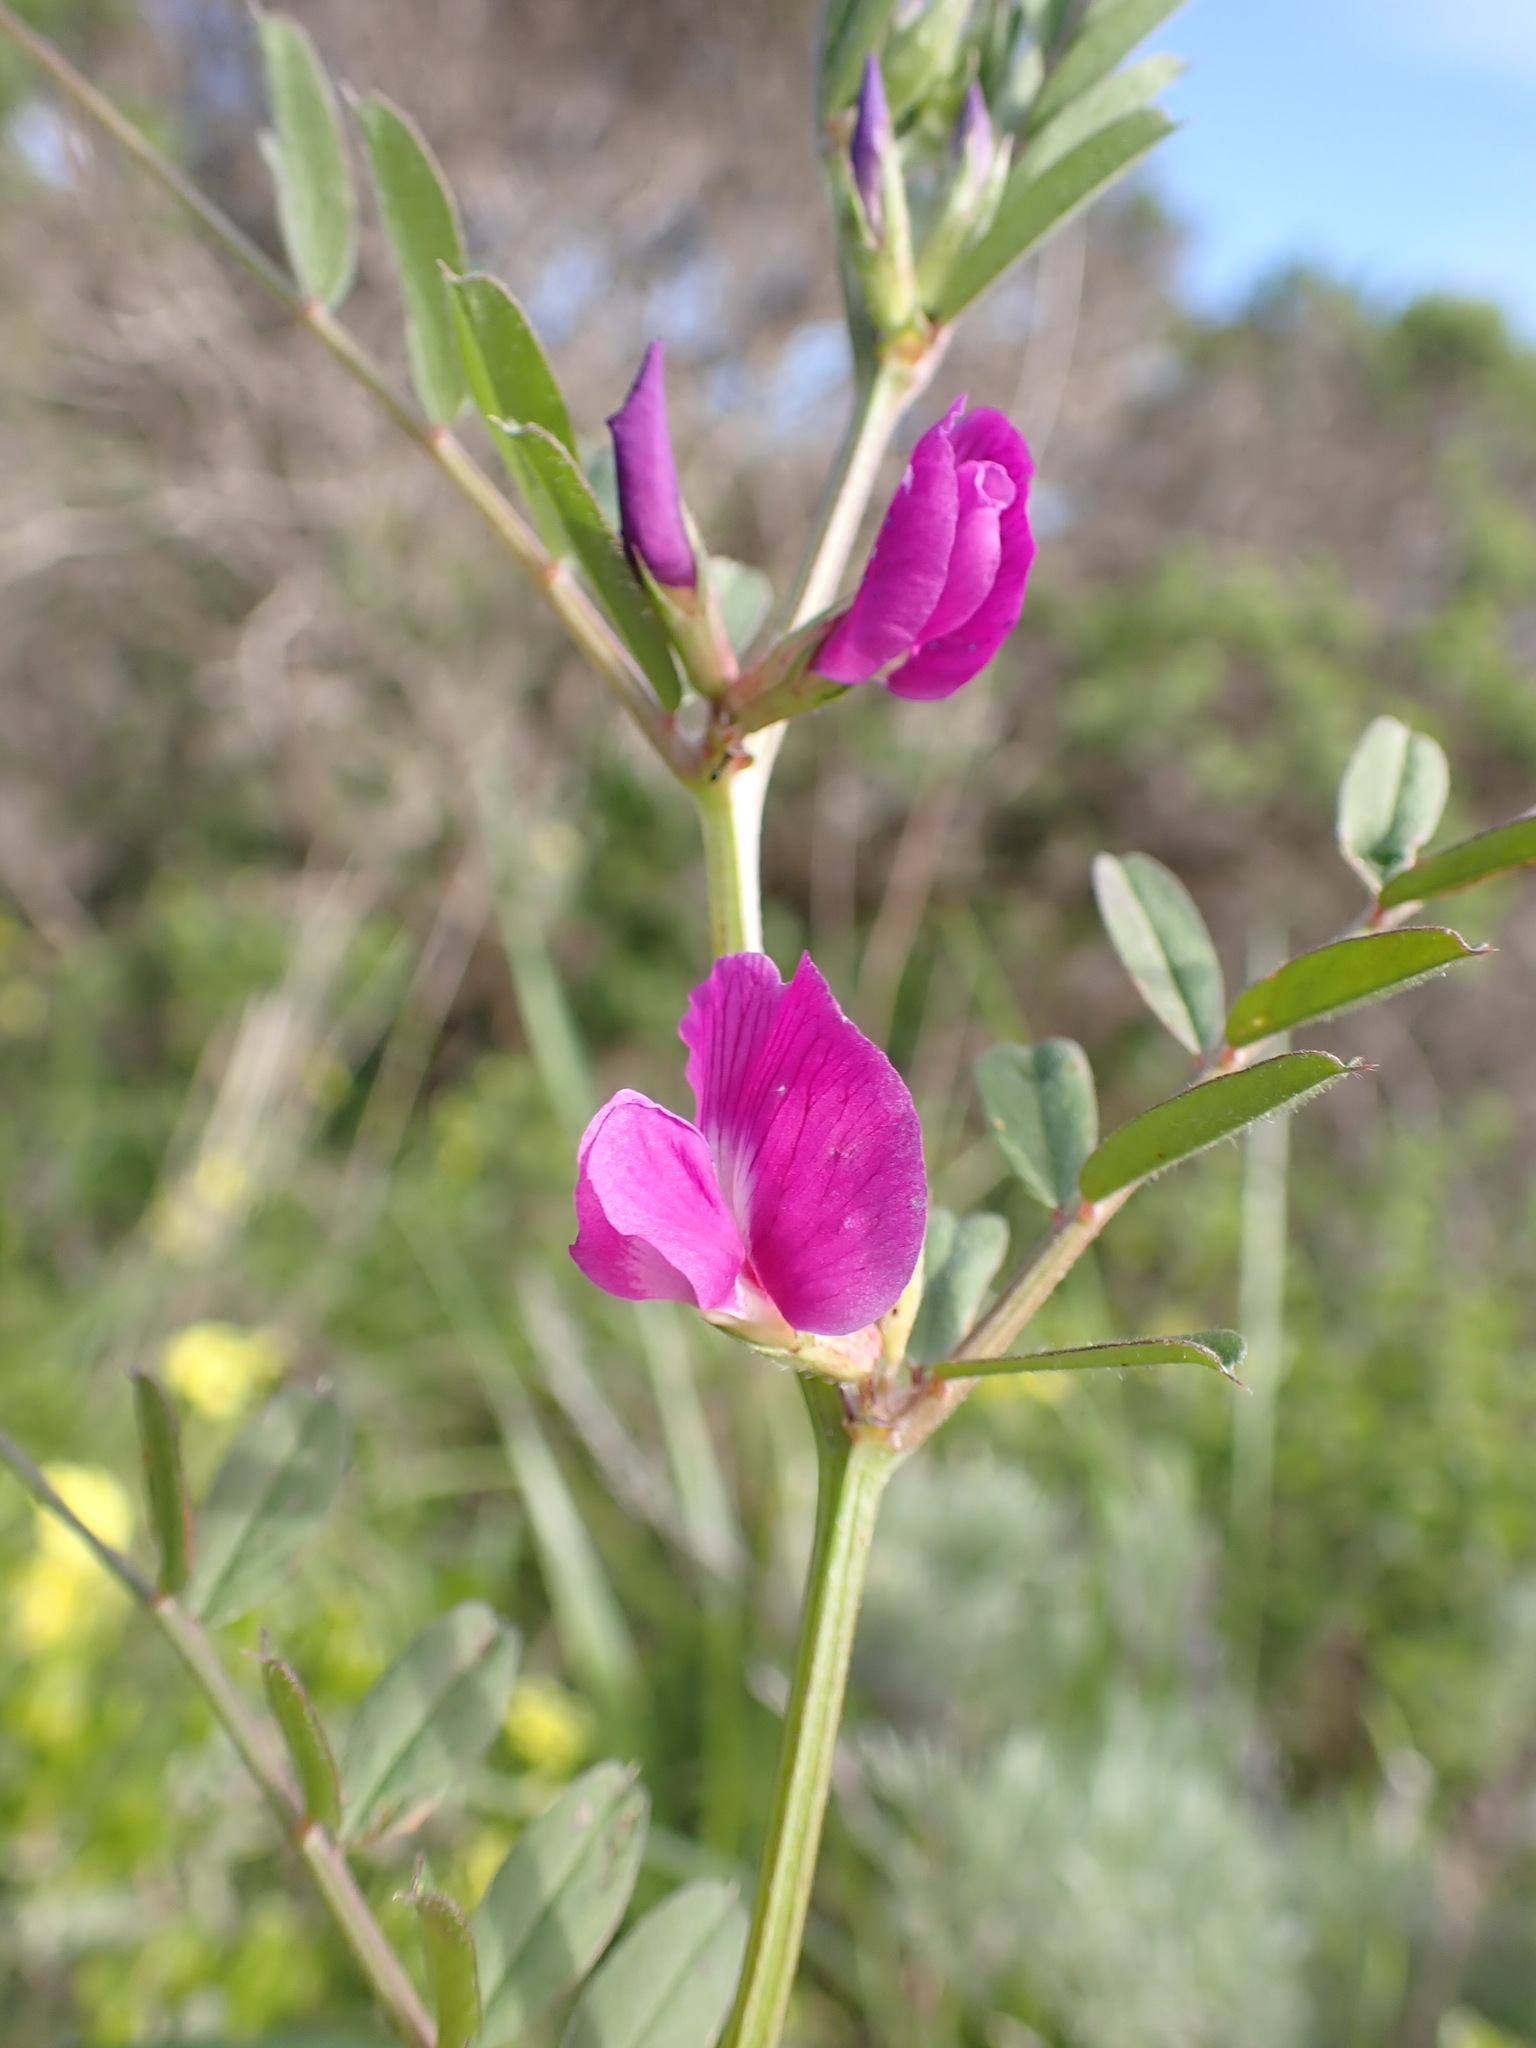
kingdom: Plantae
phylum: Tracheophyta
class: Magnoliopsida
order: Fabales
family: Fabaceae
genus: Vicia
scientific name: Vicia sativa
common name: Garden vetch
